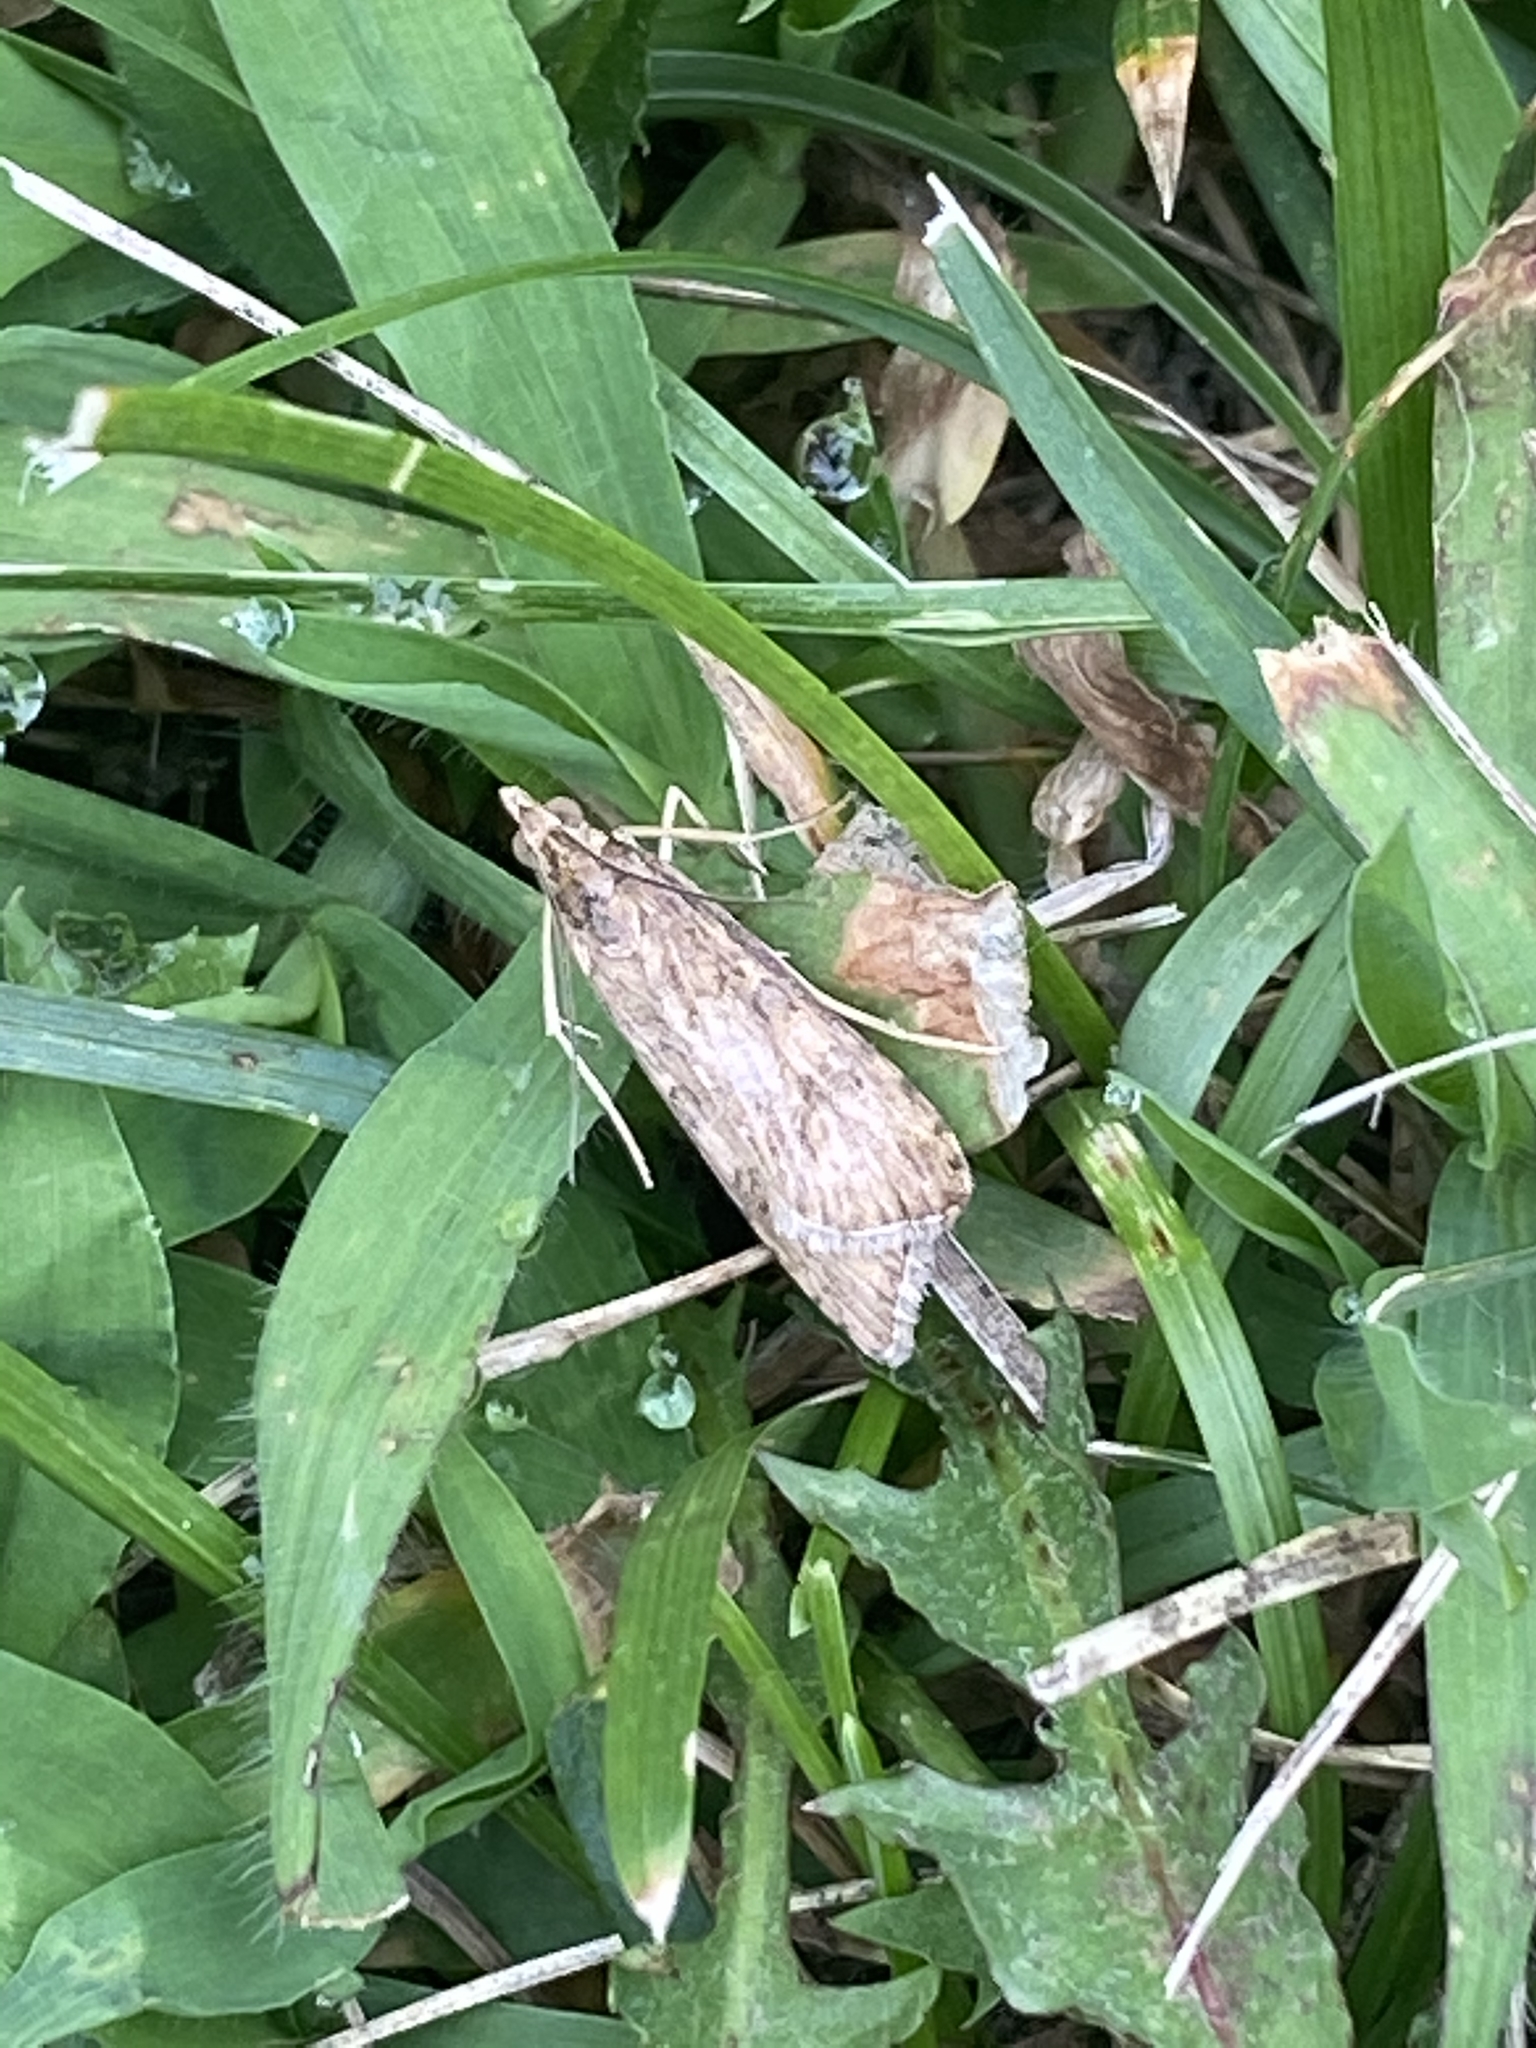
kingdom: Animalia
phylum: Arthropoda
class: Insecta
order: Lepidoptera
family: Crambidae
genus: Nomophila
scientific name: Nomophila nearctica
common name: American rush veneer
